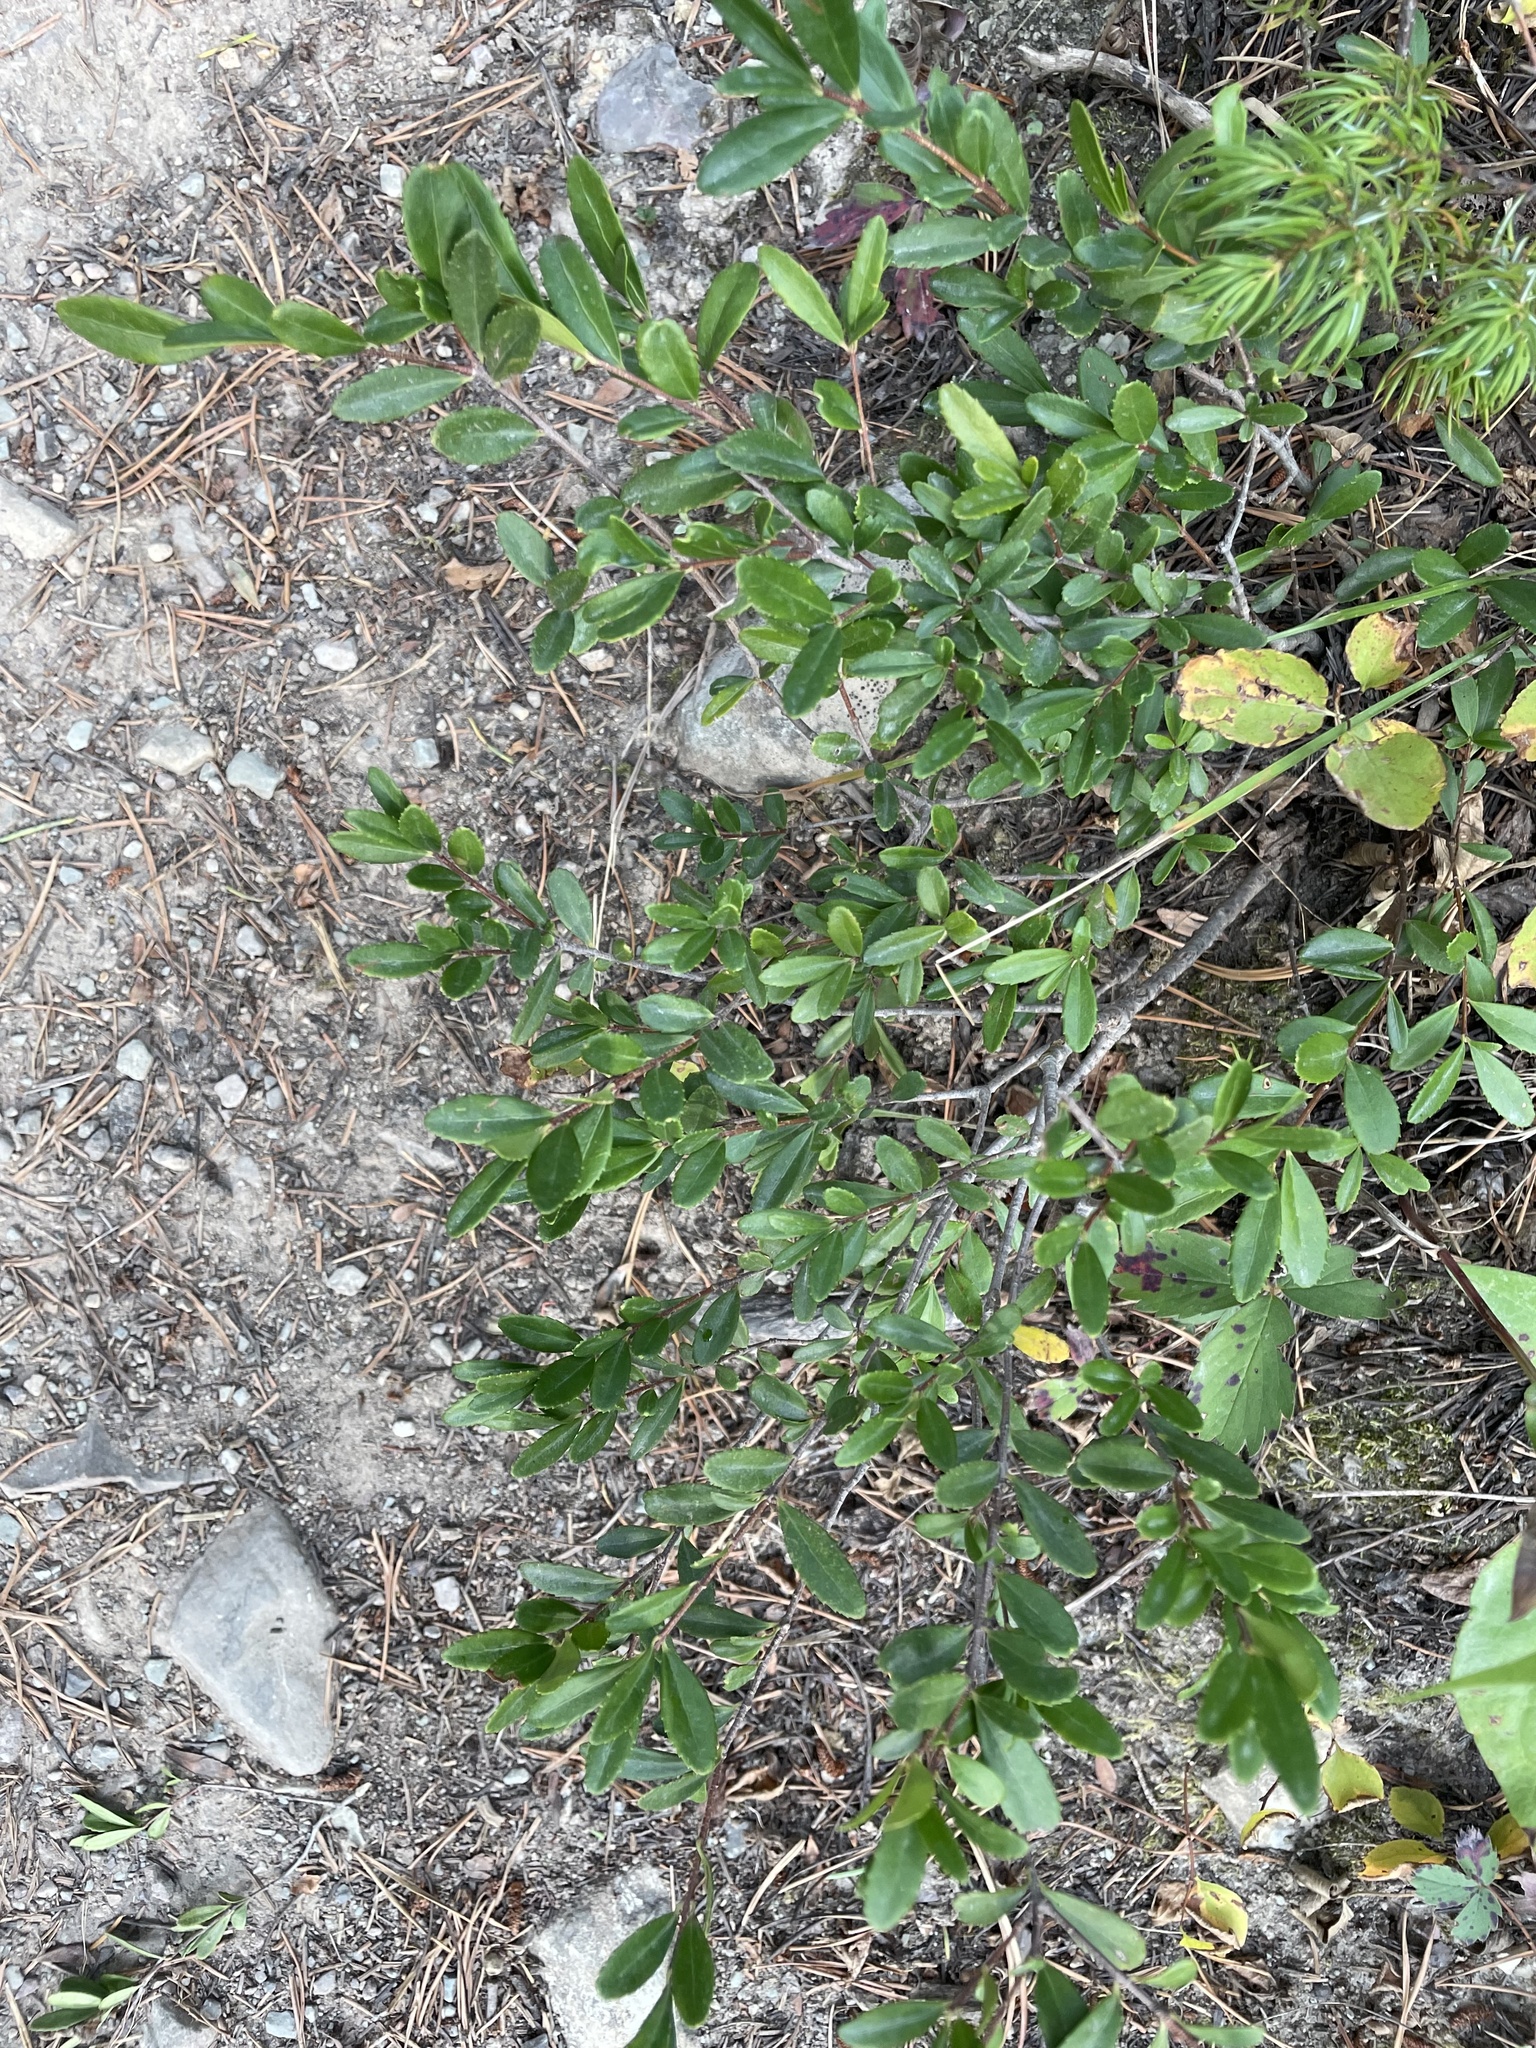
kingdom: Plantae
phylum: Tracheophyta
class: Magnoliopsida
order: Celastrales
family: Celastraceae
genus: Paxistima
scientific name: Paxistima myrsinites
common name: Mountain-lover
